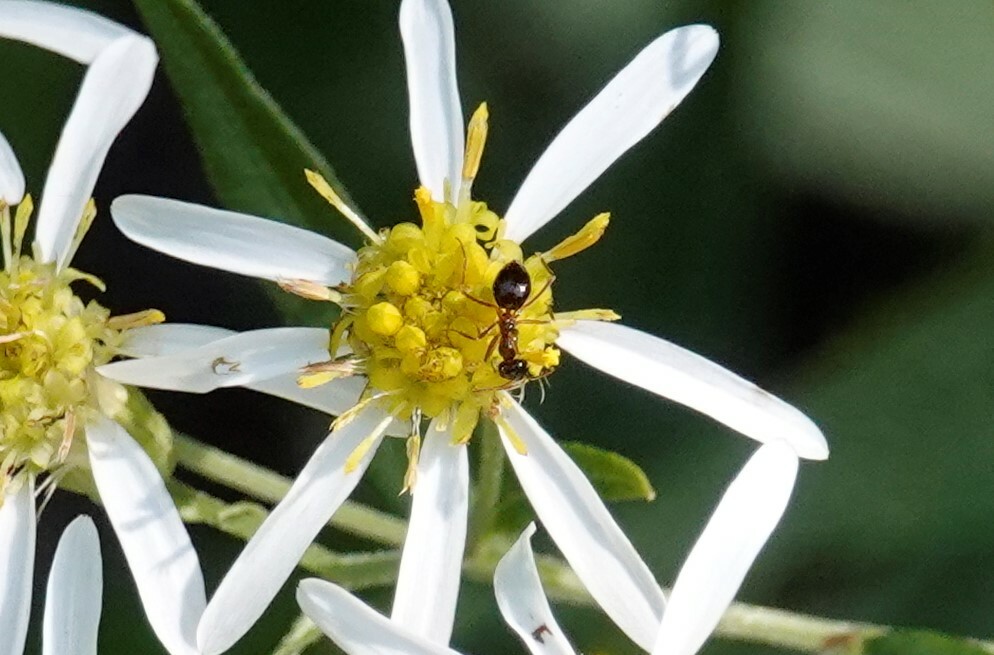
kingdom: Animalia
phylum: Arthropoda
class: Insecta
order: Hymenoptera
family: Formicidae
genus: Prenolepis
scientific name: Prenolepis imparis
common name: Small honey ant
